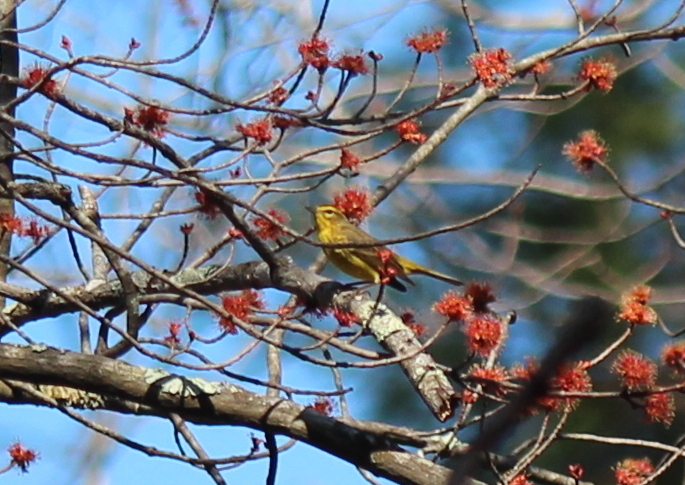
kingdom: Animalia
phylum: Chordata
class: Aves
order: Passeriformes
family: Parulidae
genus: Setophaga
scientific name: Setophaga palmarum
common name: Palm warbler
